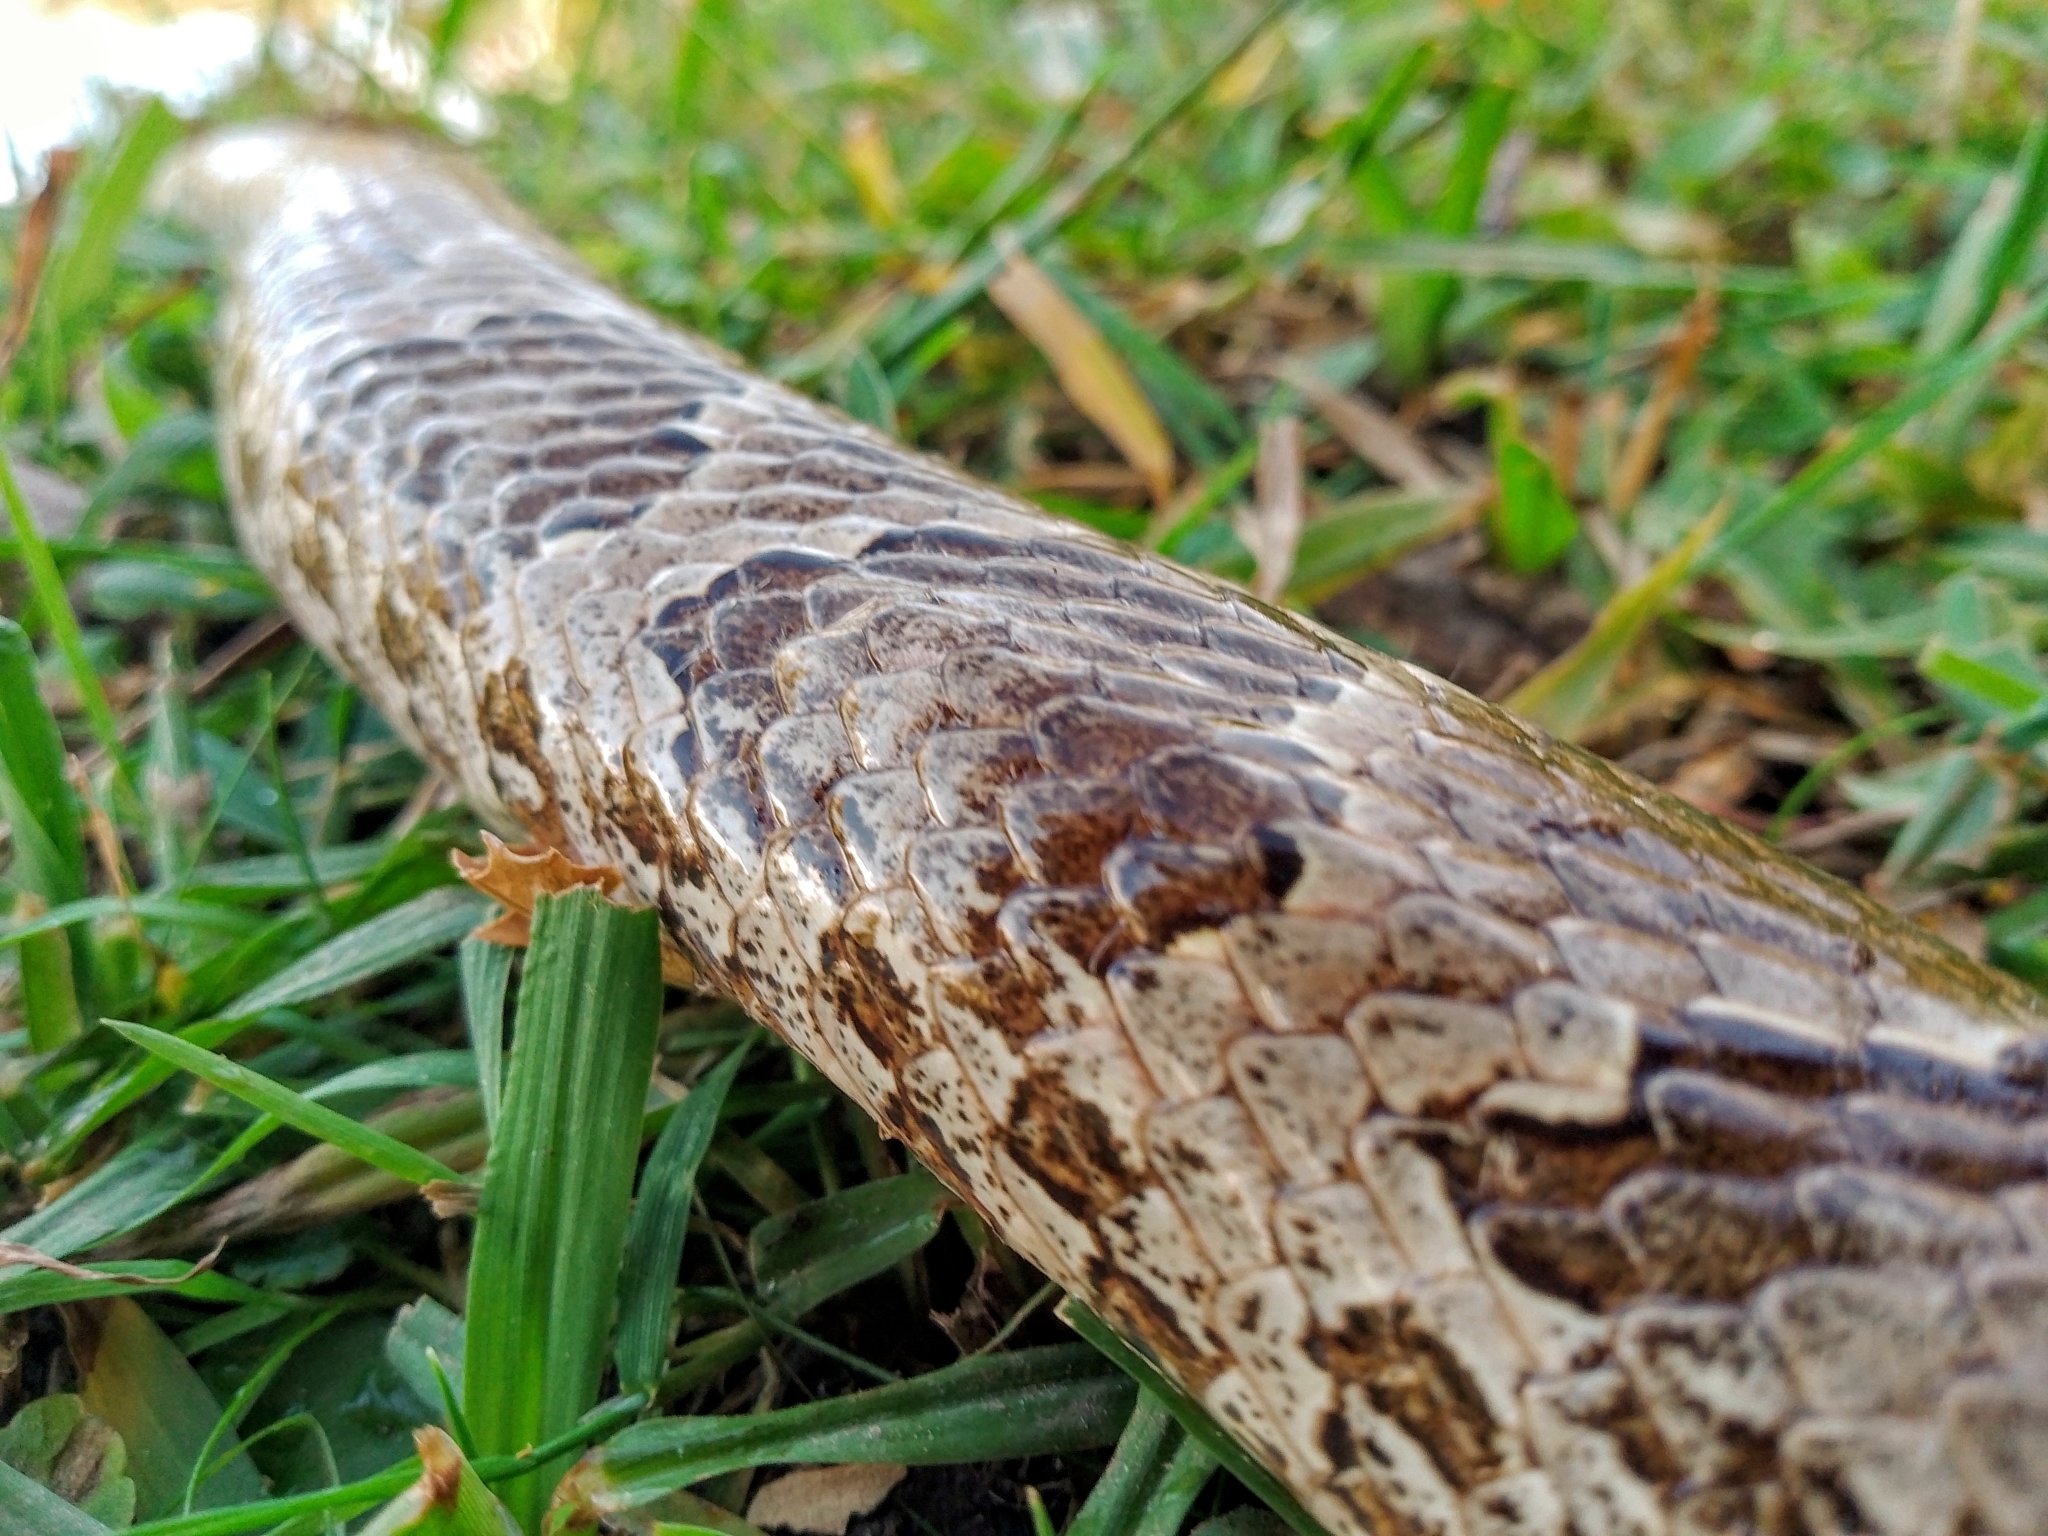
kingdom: Animalia
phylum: Chordata
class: Squamata
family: Colubridae
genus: Xenodon
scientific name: Xenodon merremii
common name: Wagler's snake
